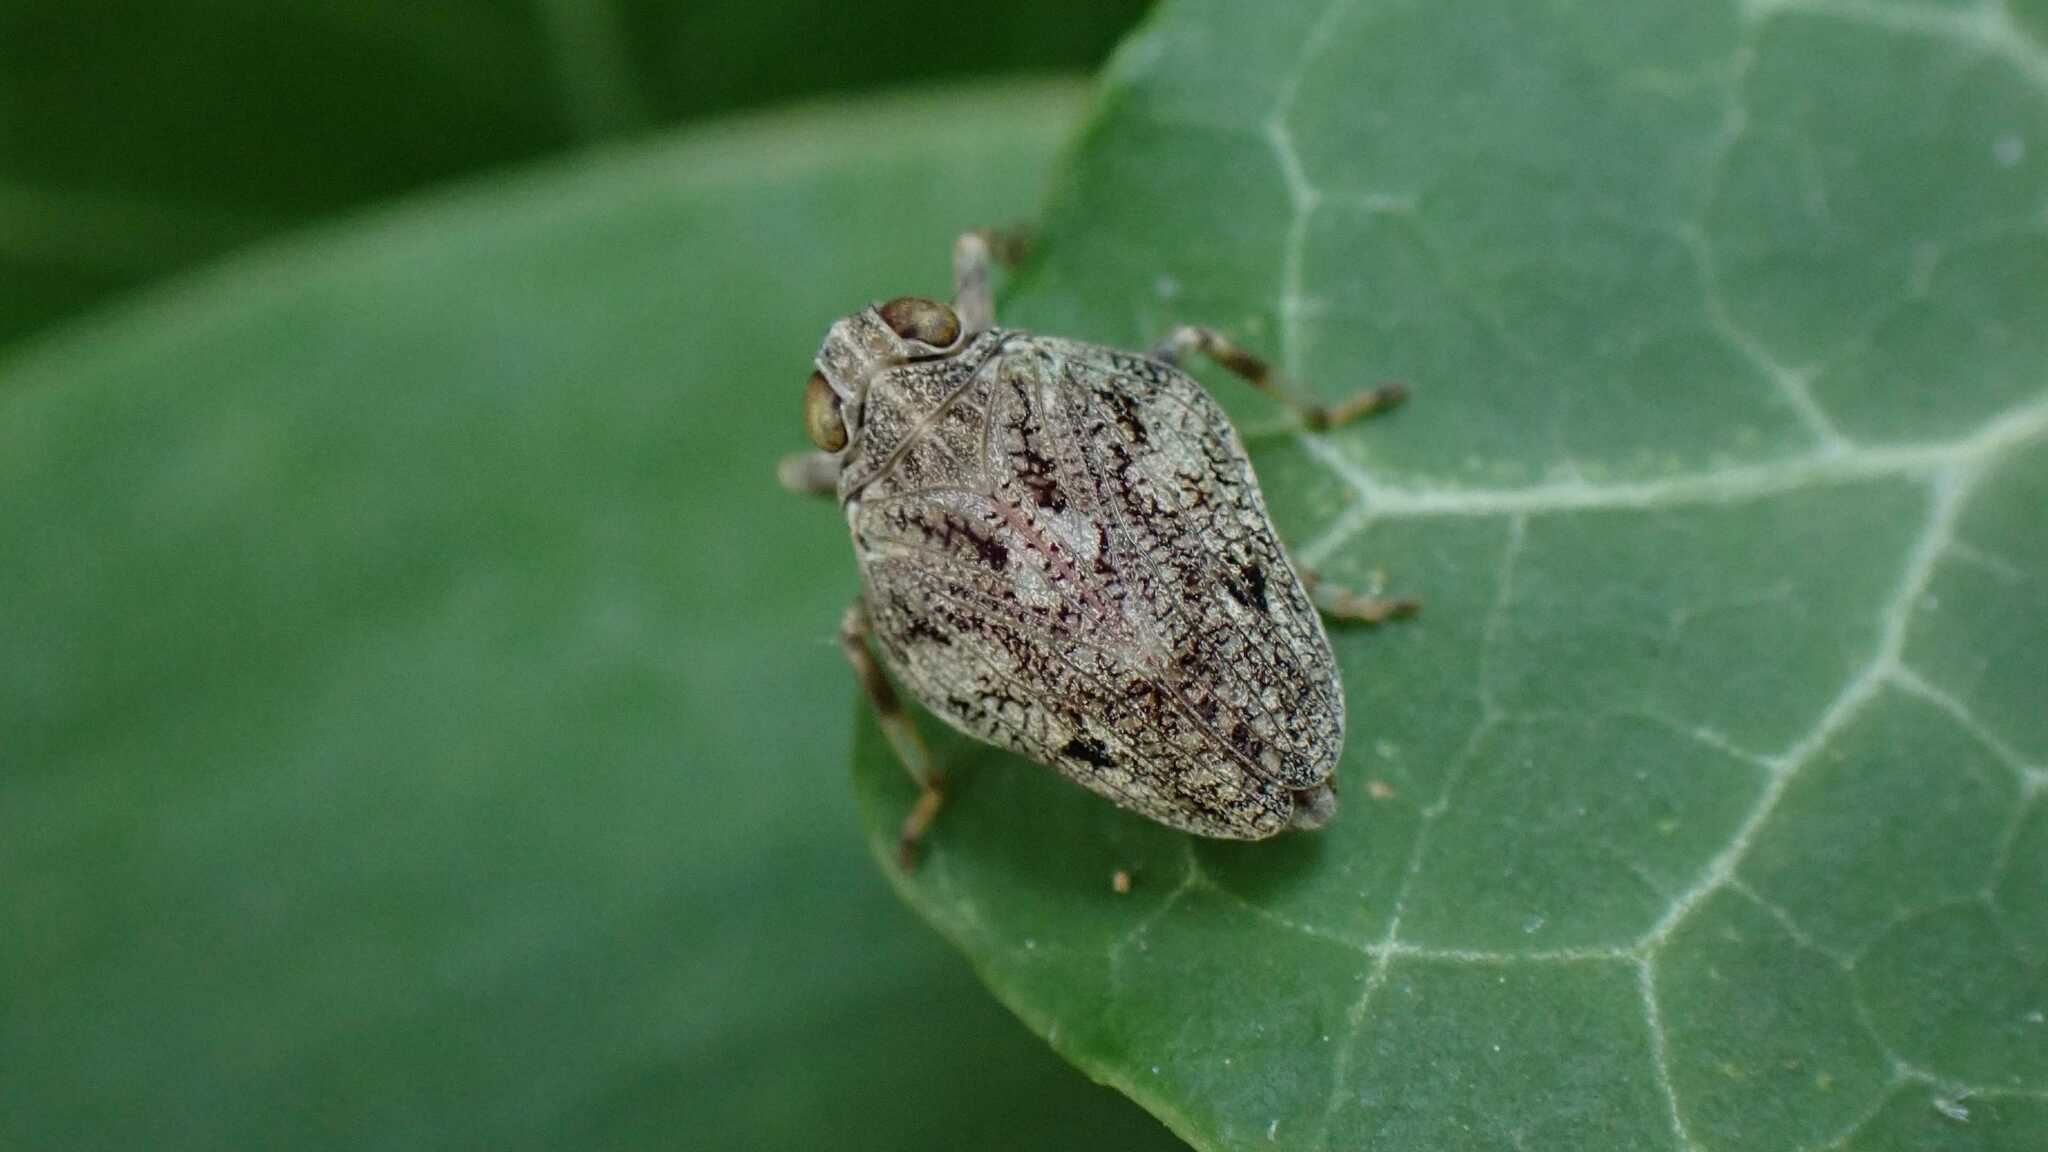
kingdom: Animalia
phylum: Arthropoda
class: Insecta
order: Hemiptera
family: Issidae
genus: Issus
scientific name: Issus coleoptratus
